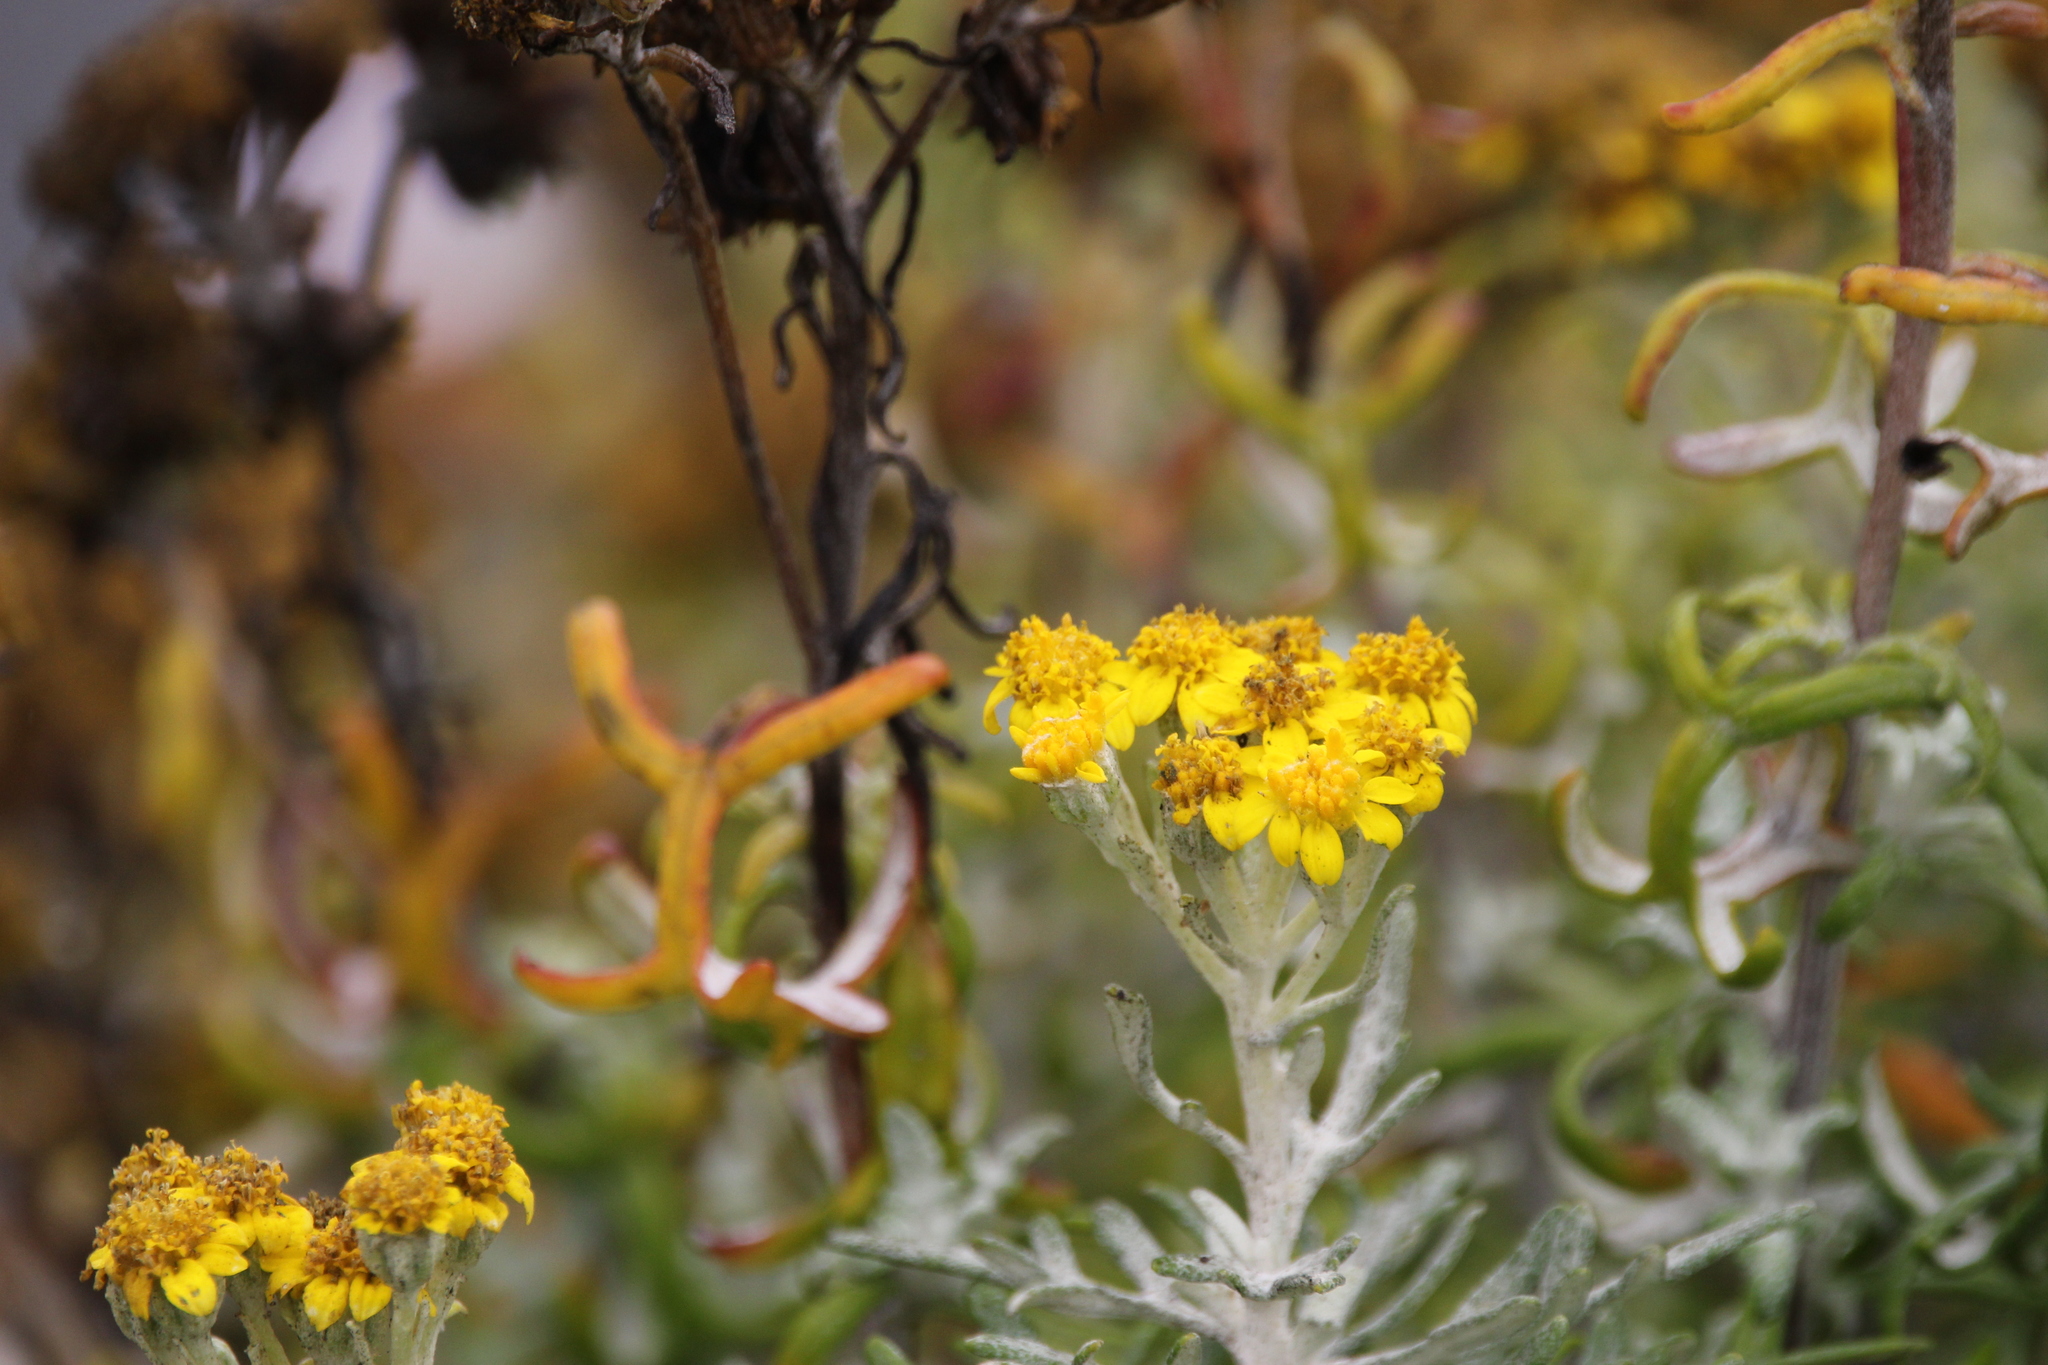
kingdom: Plantae
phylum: Tracheophyta
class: Magnoliopsida
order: Asterales
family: Asteraceae
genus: Eriophyllum
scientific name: Eriophyllum staechadifolium
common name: Lizardtail
